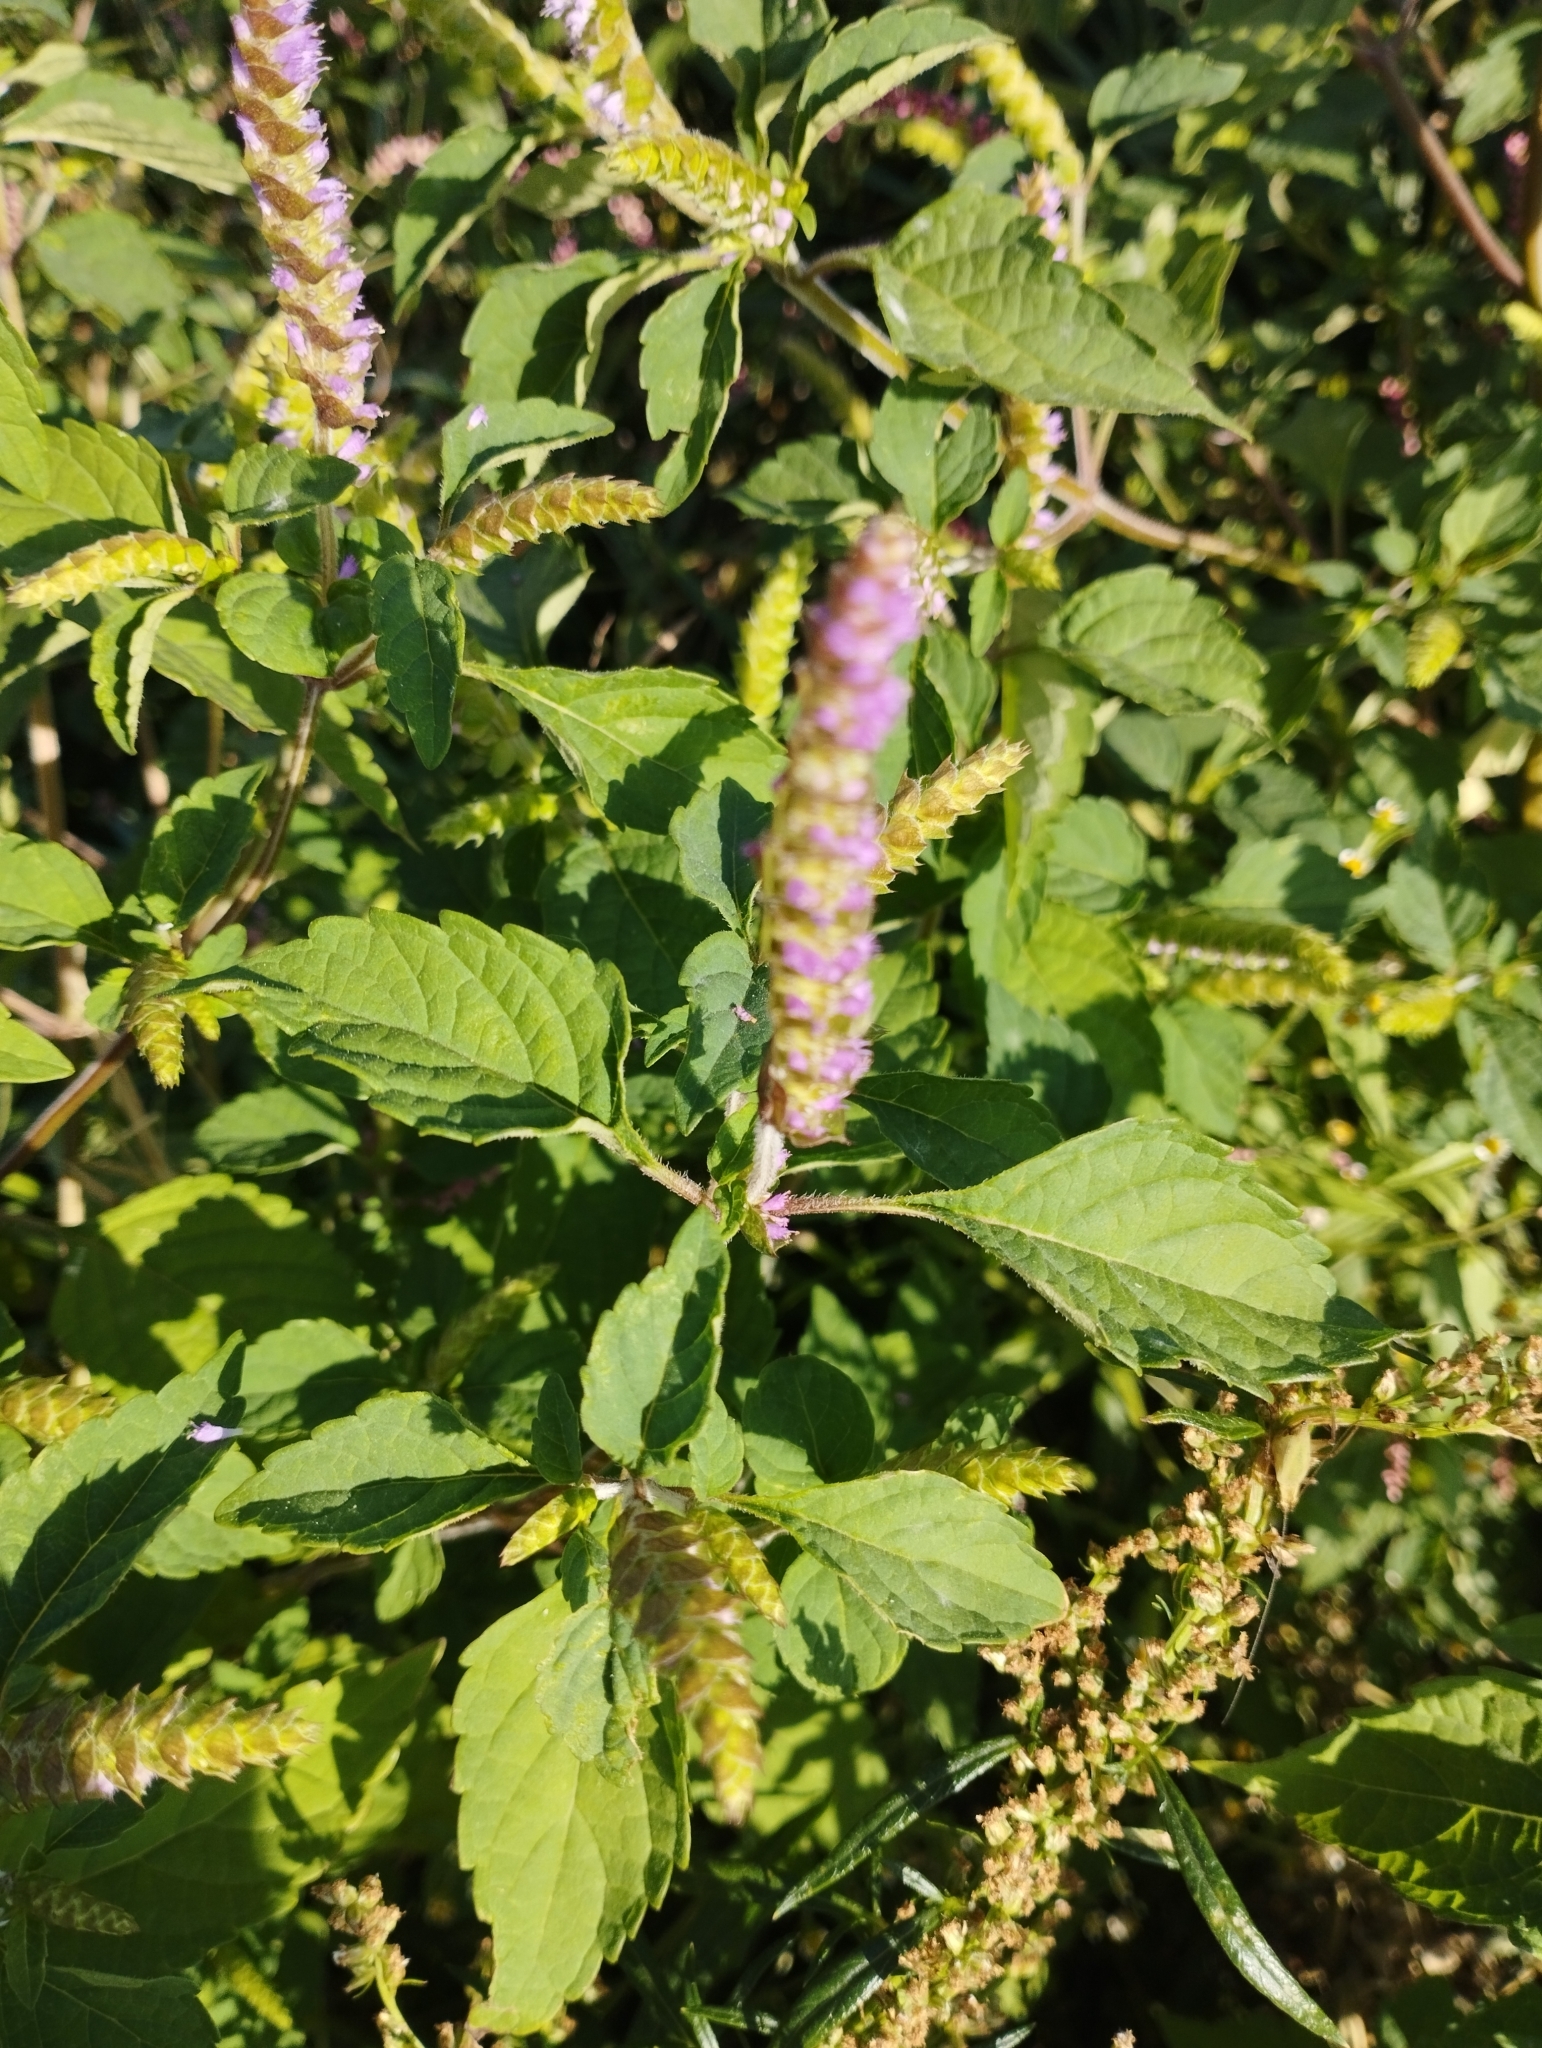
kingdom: Plantae
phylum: Tracheophyta
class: Magnoliopsida
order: Lamiales
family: Lamiaceae
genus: Elsholtzia
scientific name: Elsholtzia ciliata
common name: Ciliate elsholtzia
